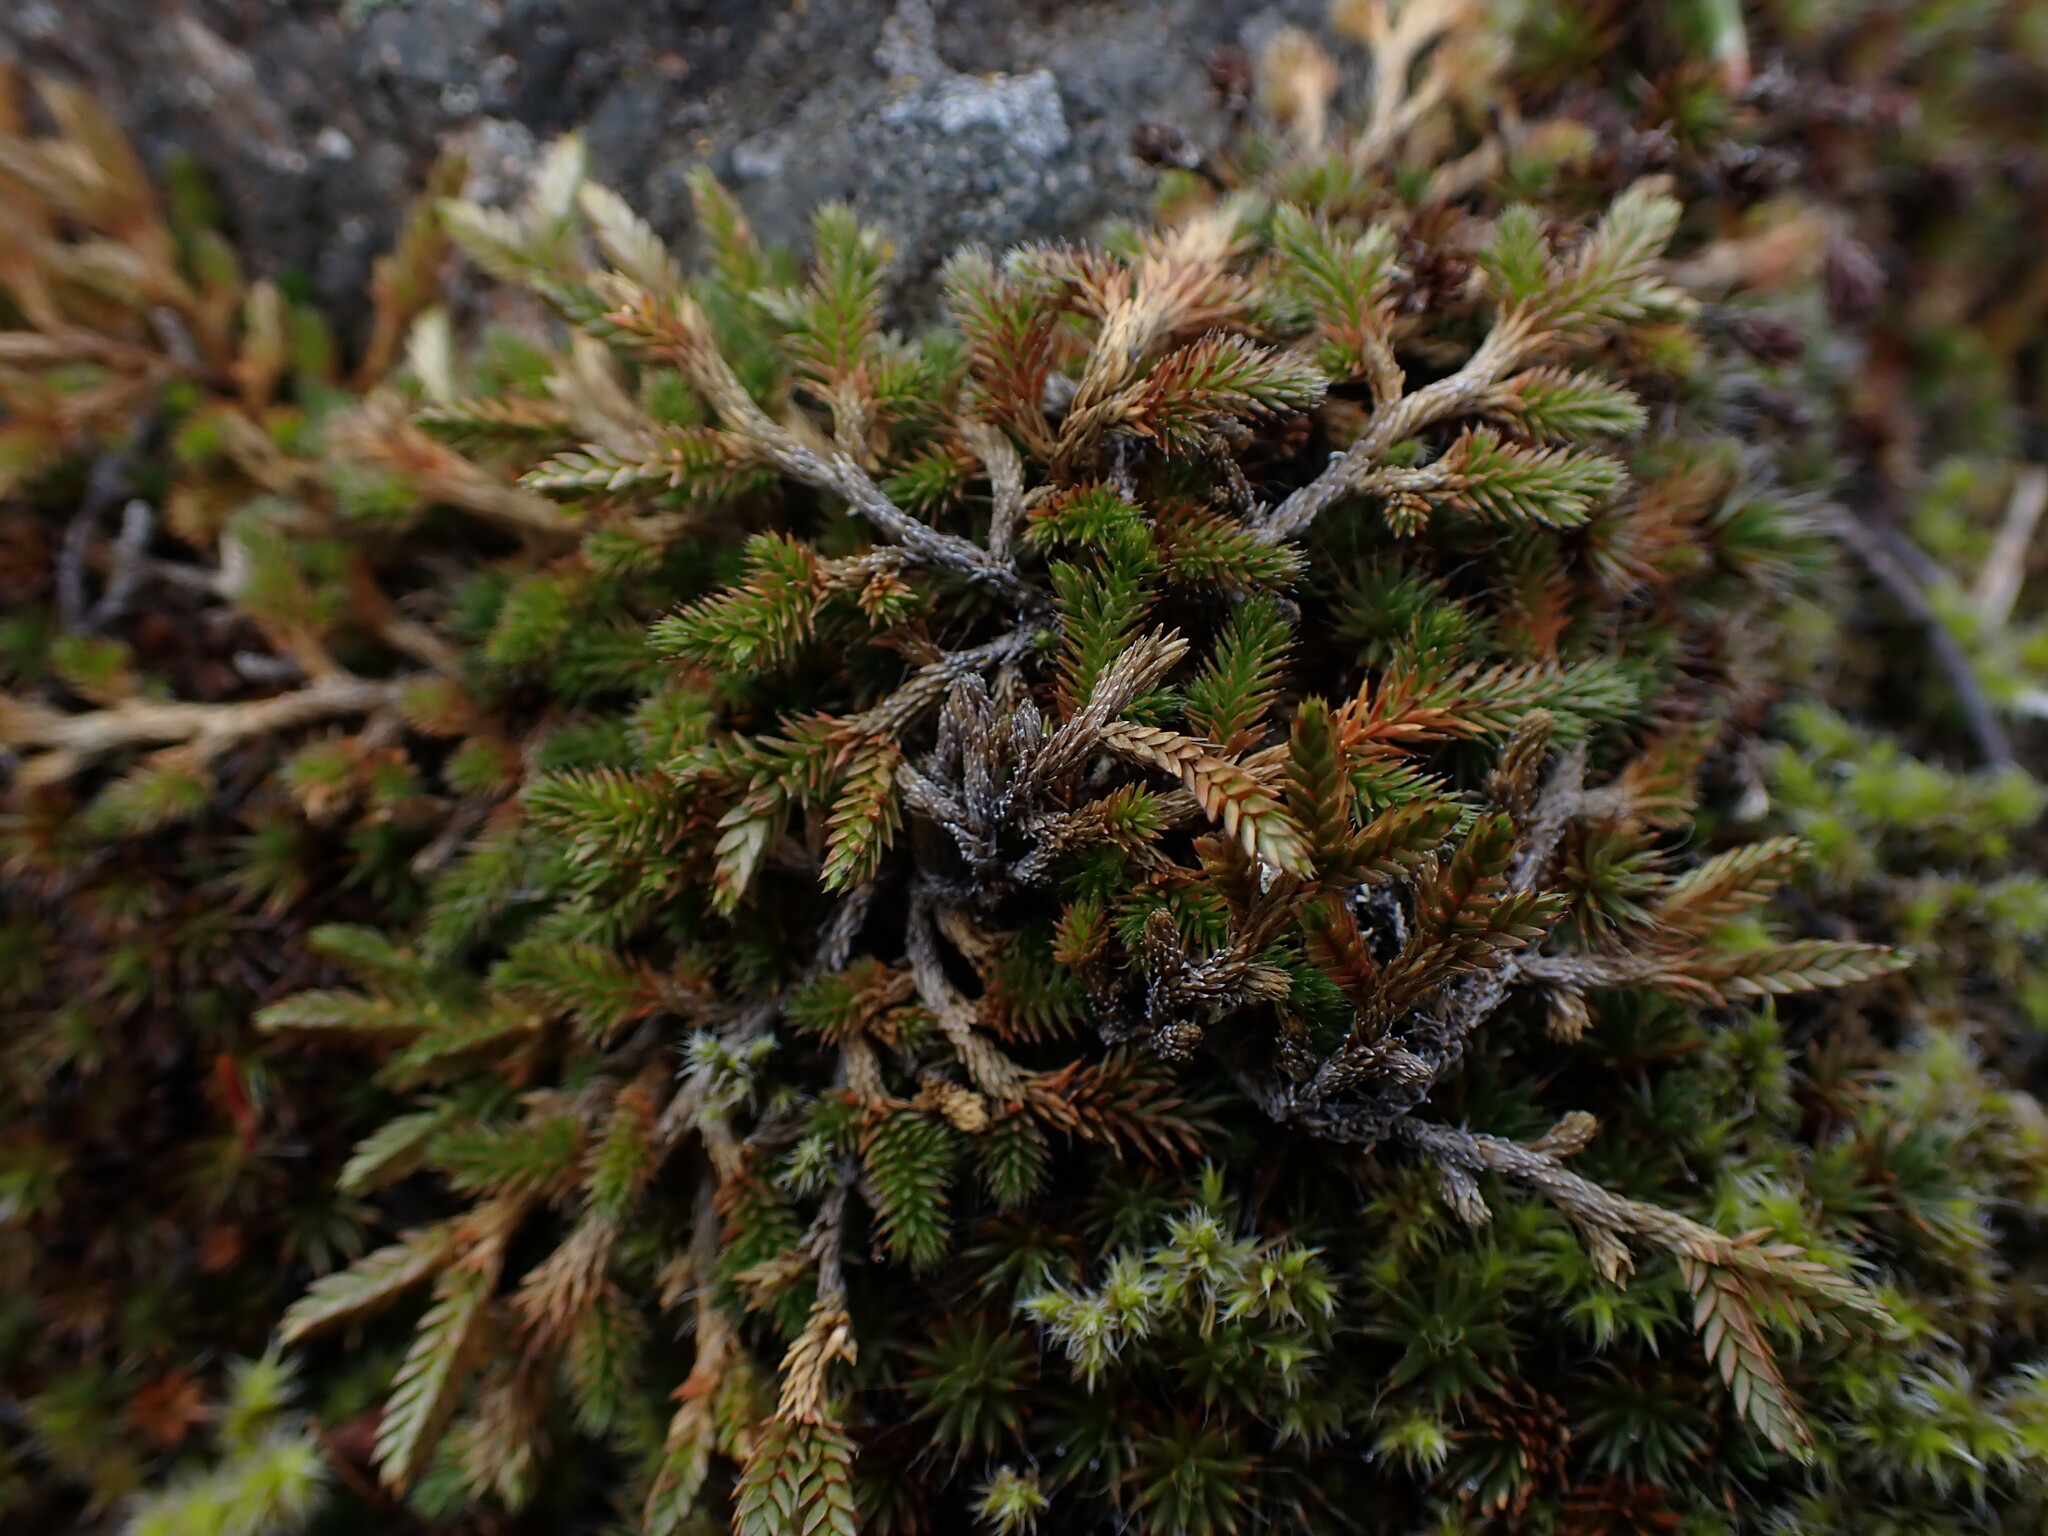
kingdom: Plantae
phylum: Tracheophyta
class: Lycopodiopsida
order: Selaginellales
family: Selaginellaceae
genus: Selaginella
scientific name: Selaginella wallacei
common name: Wallace's selaginella
